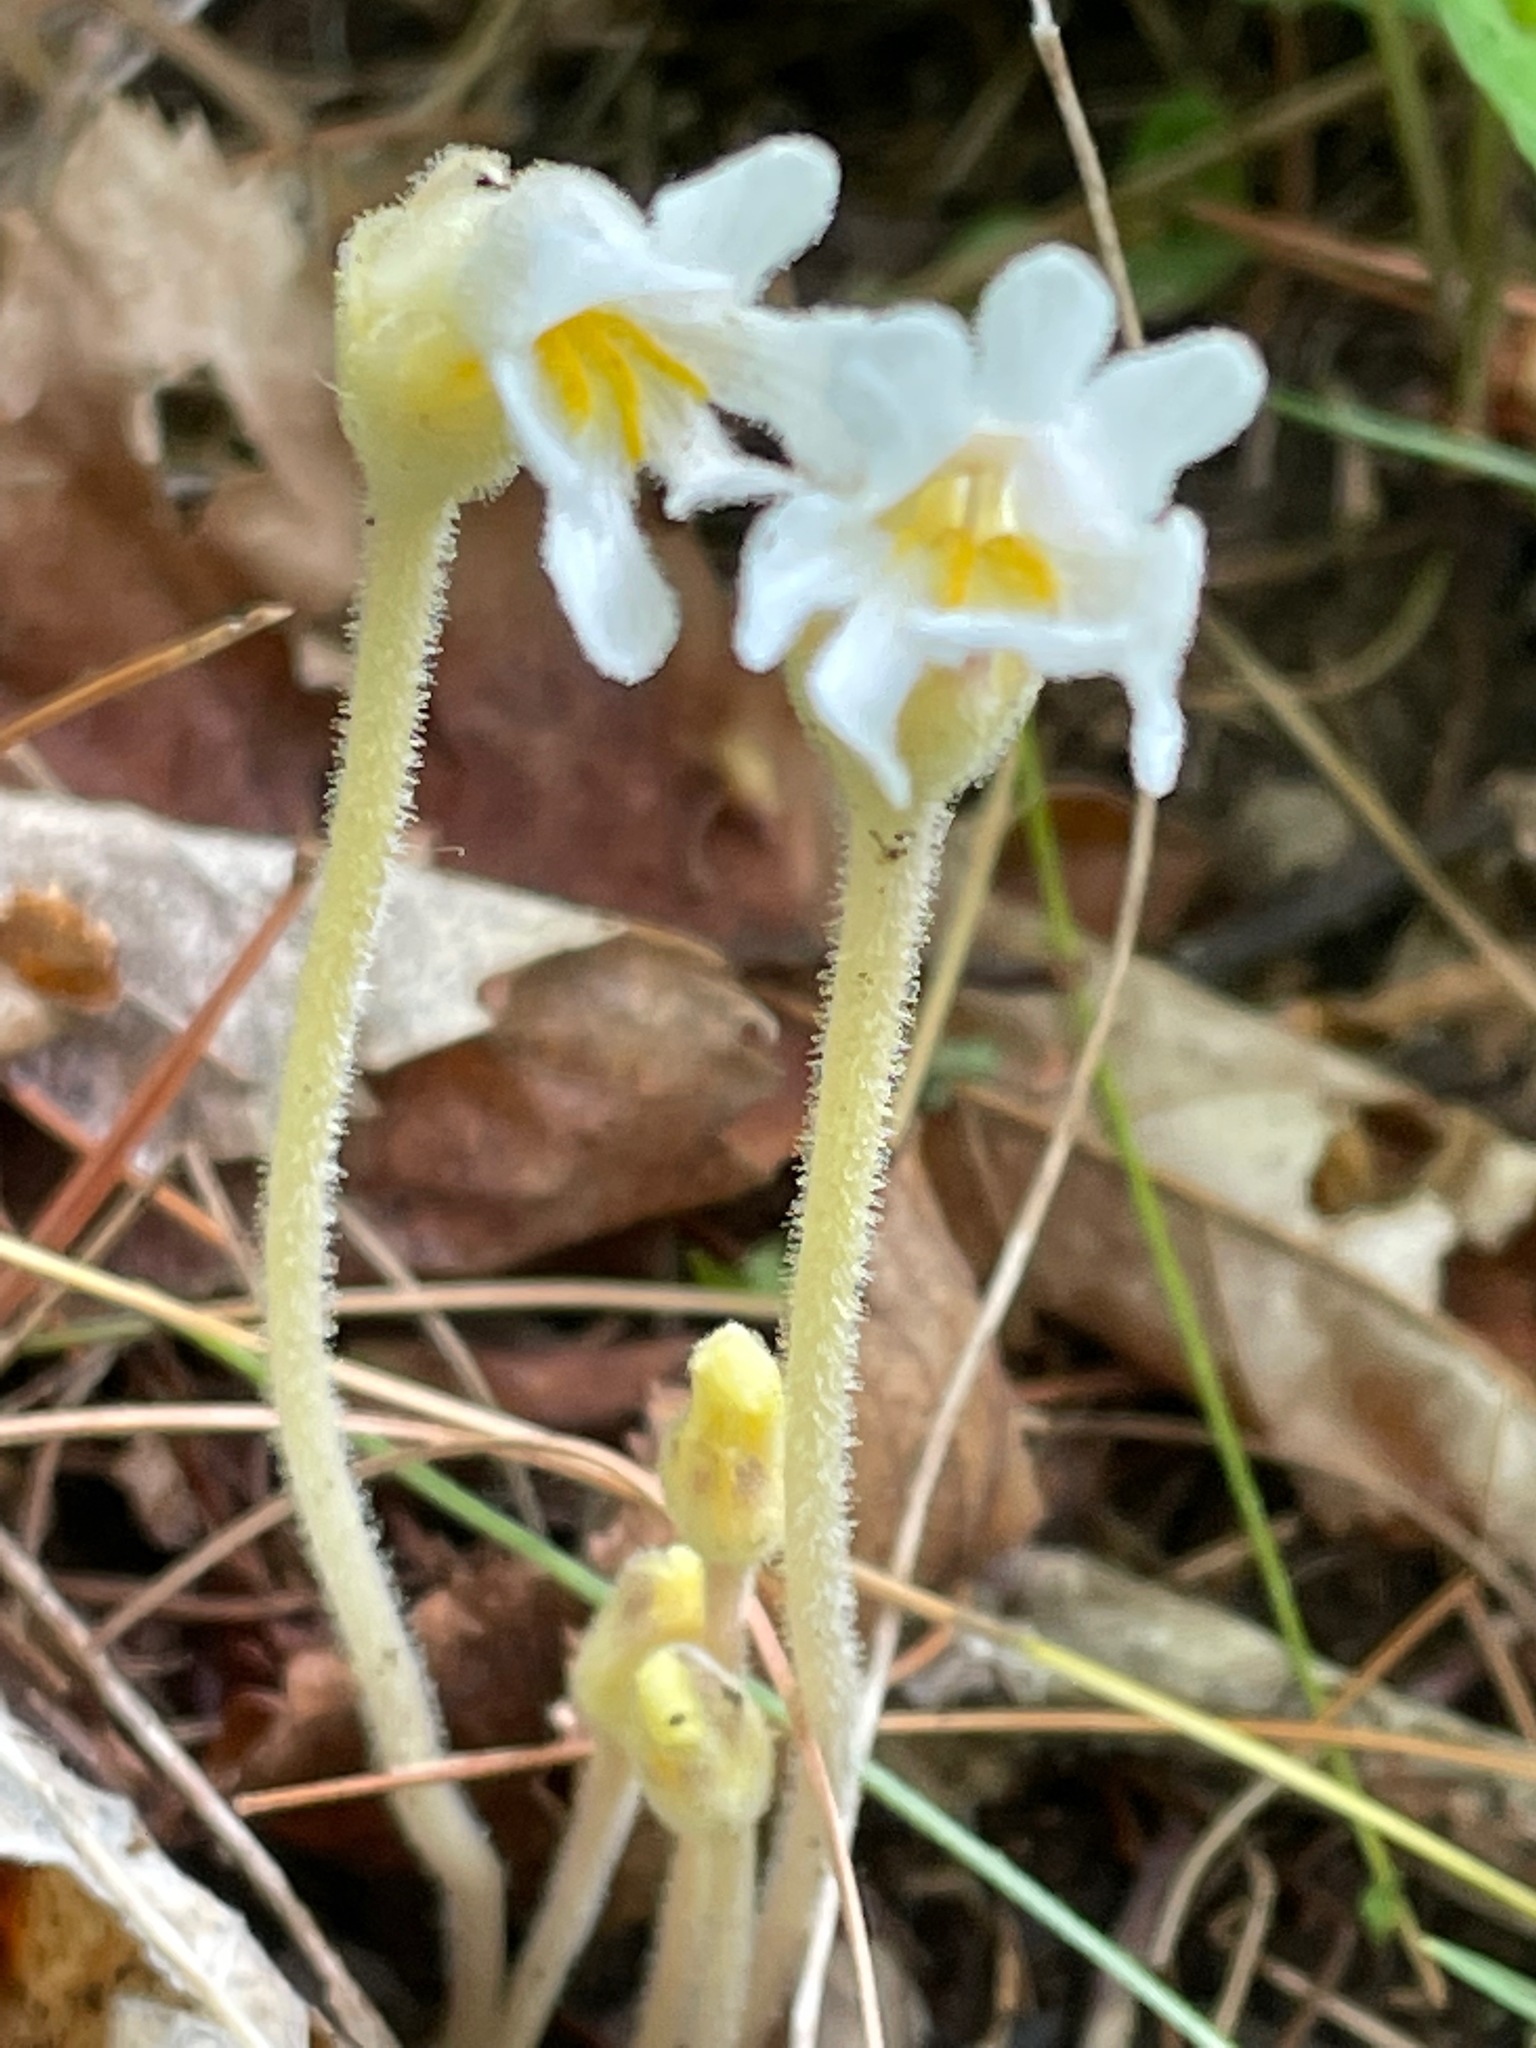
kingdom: Plantae
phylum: Tracheophyta
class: Magnoliopsida
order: Lamiales
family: Orobanchaceae
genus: Aphyllon
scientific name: Aphyllon uniflorum
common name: One-flowered broomrape
